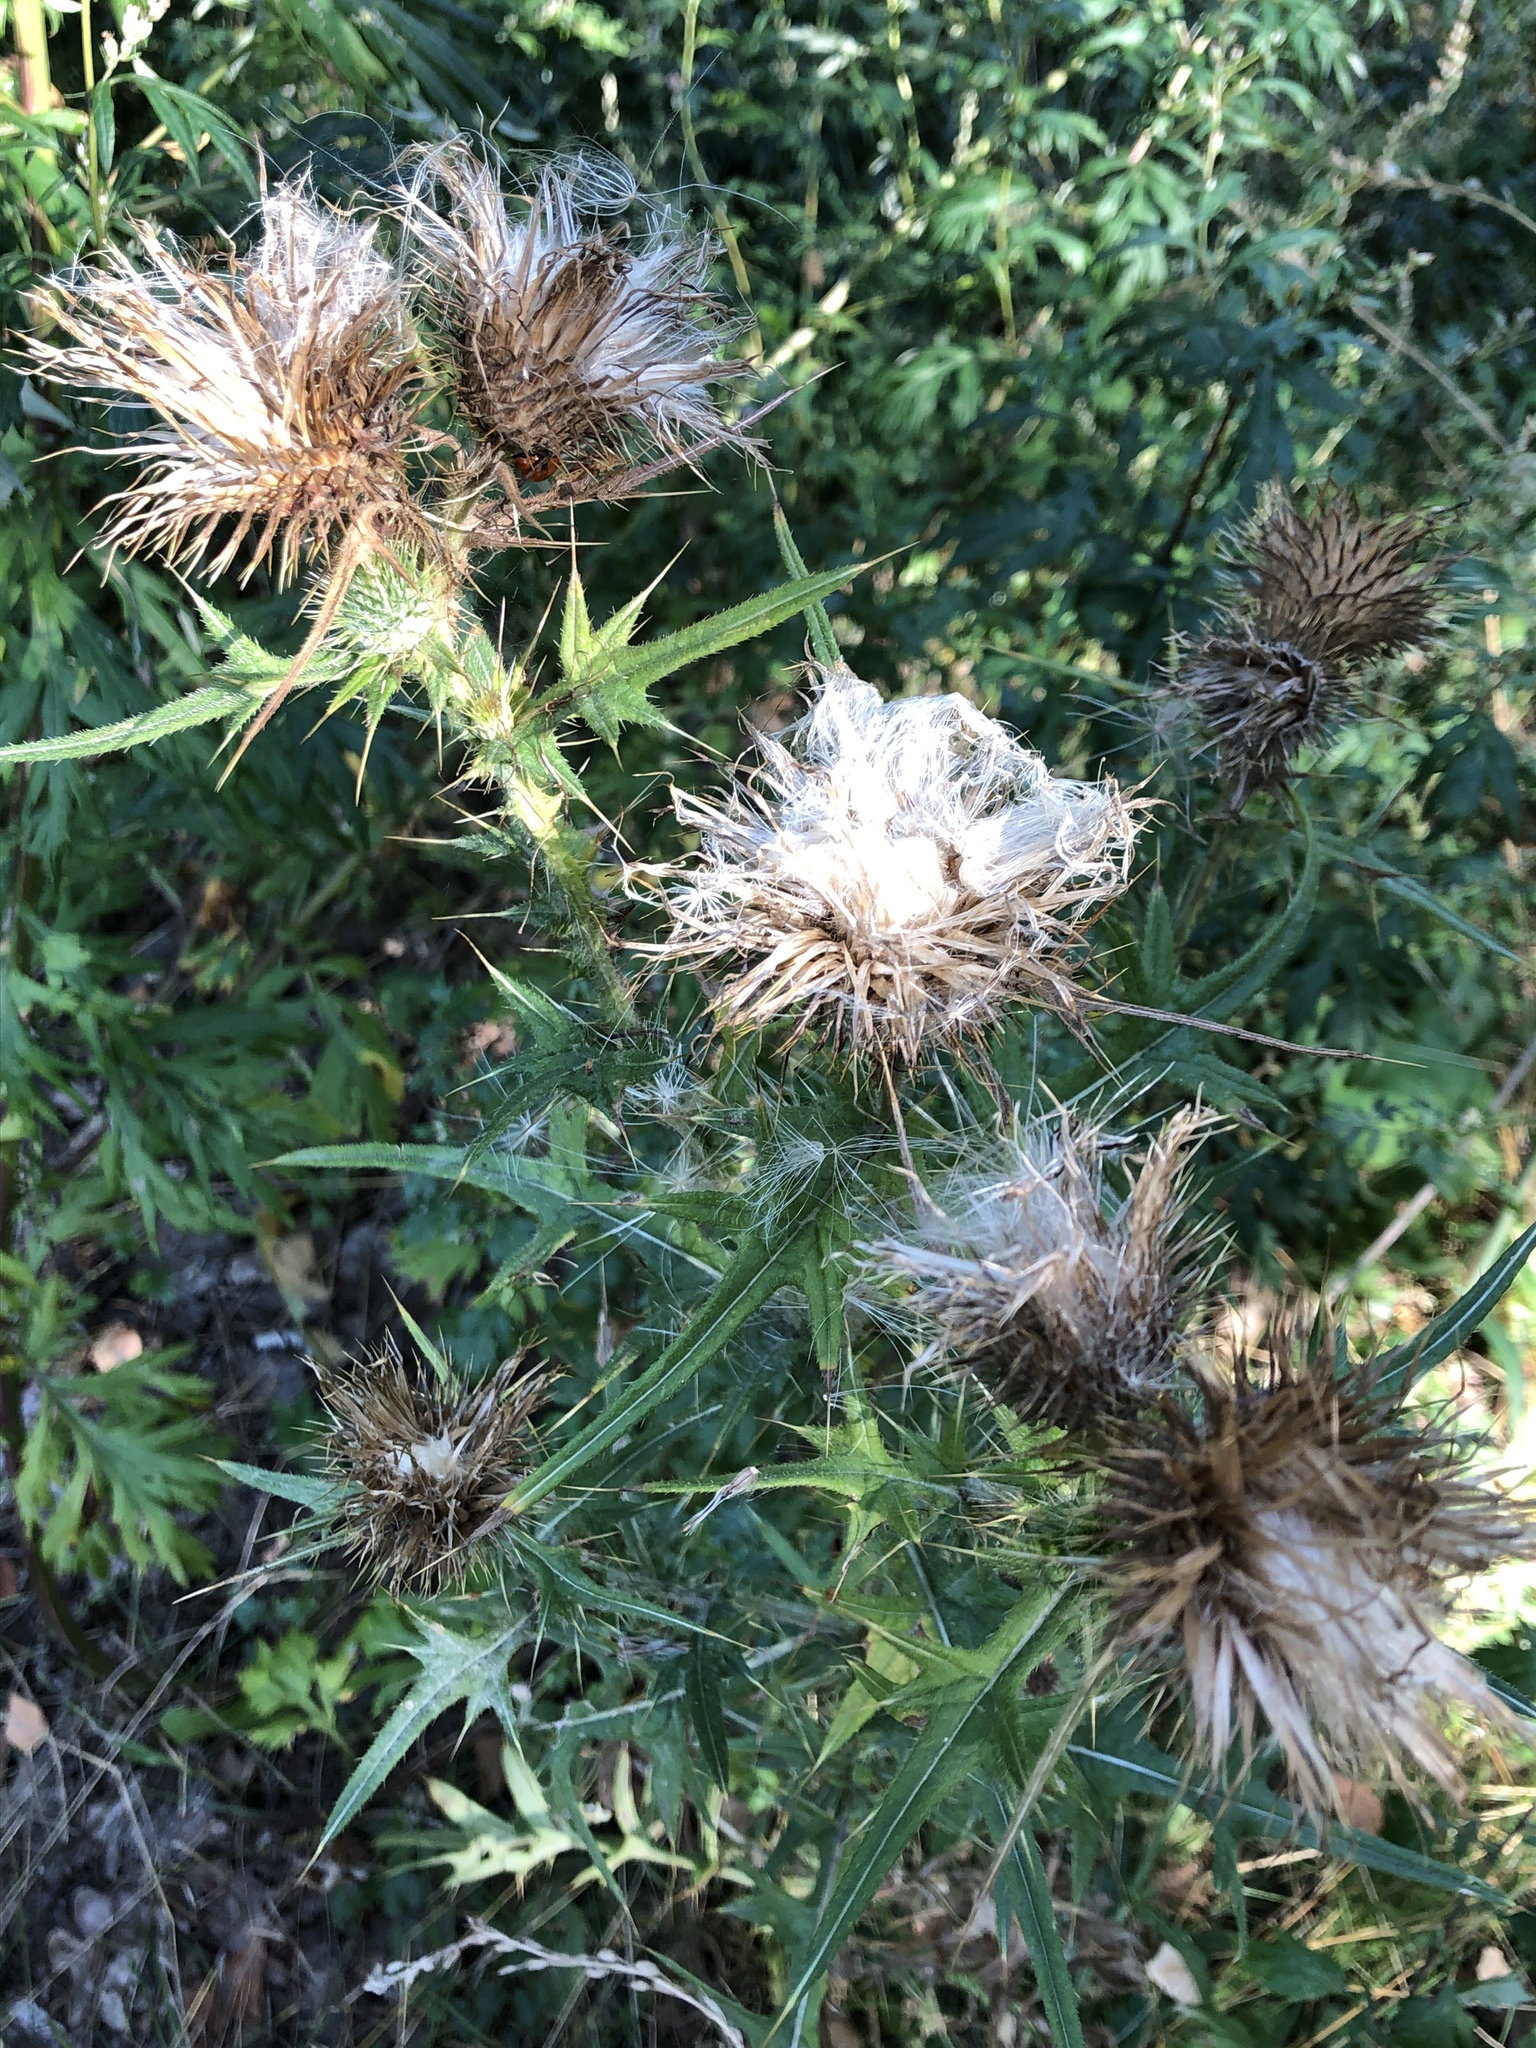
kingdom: Plantae
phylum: Tracheophyta
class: Magnoliopsida
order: Asterales
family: Asteraceae
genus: Cirsium
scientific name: Cirsium vulgare
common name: Bull thistle
